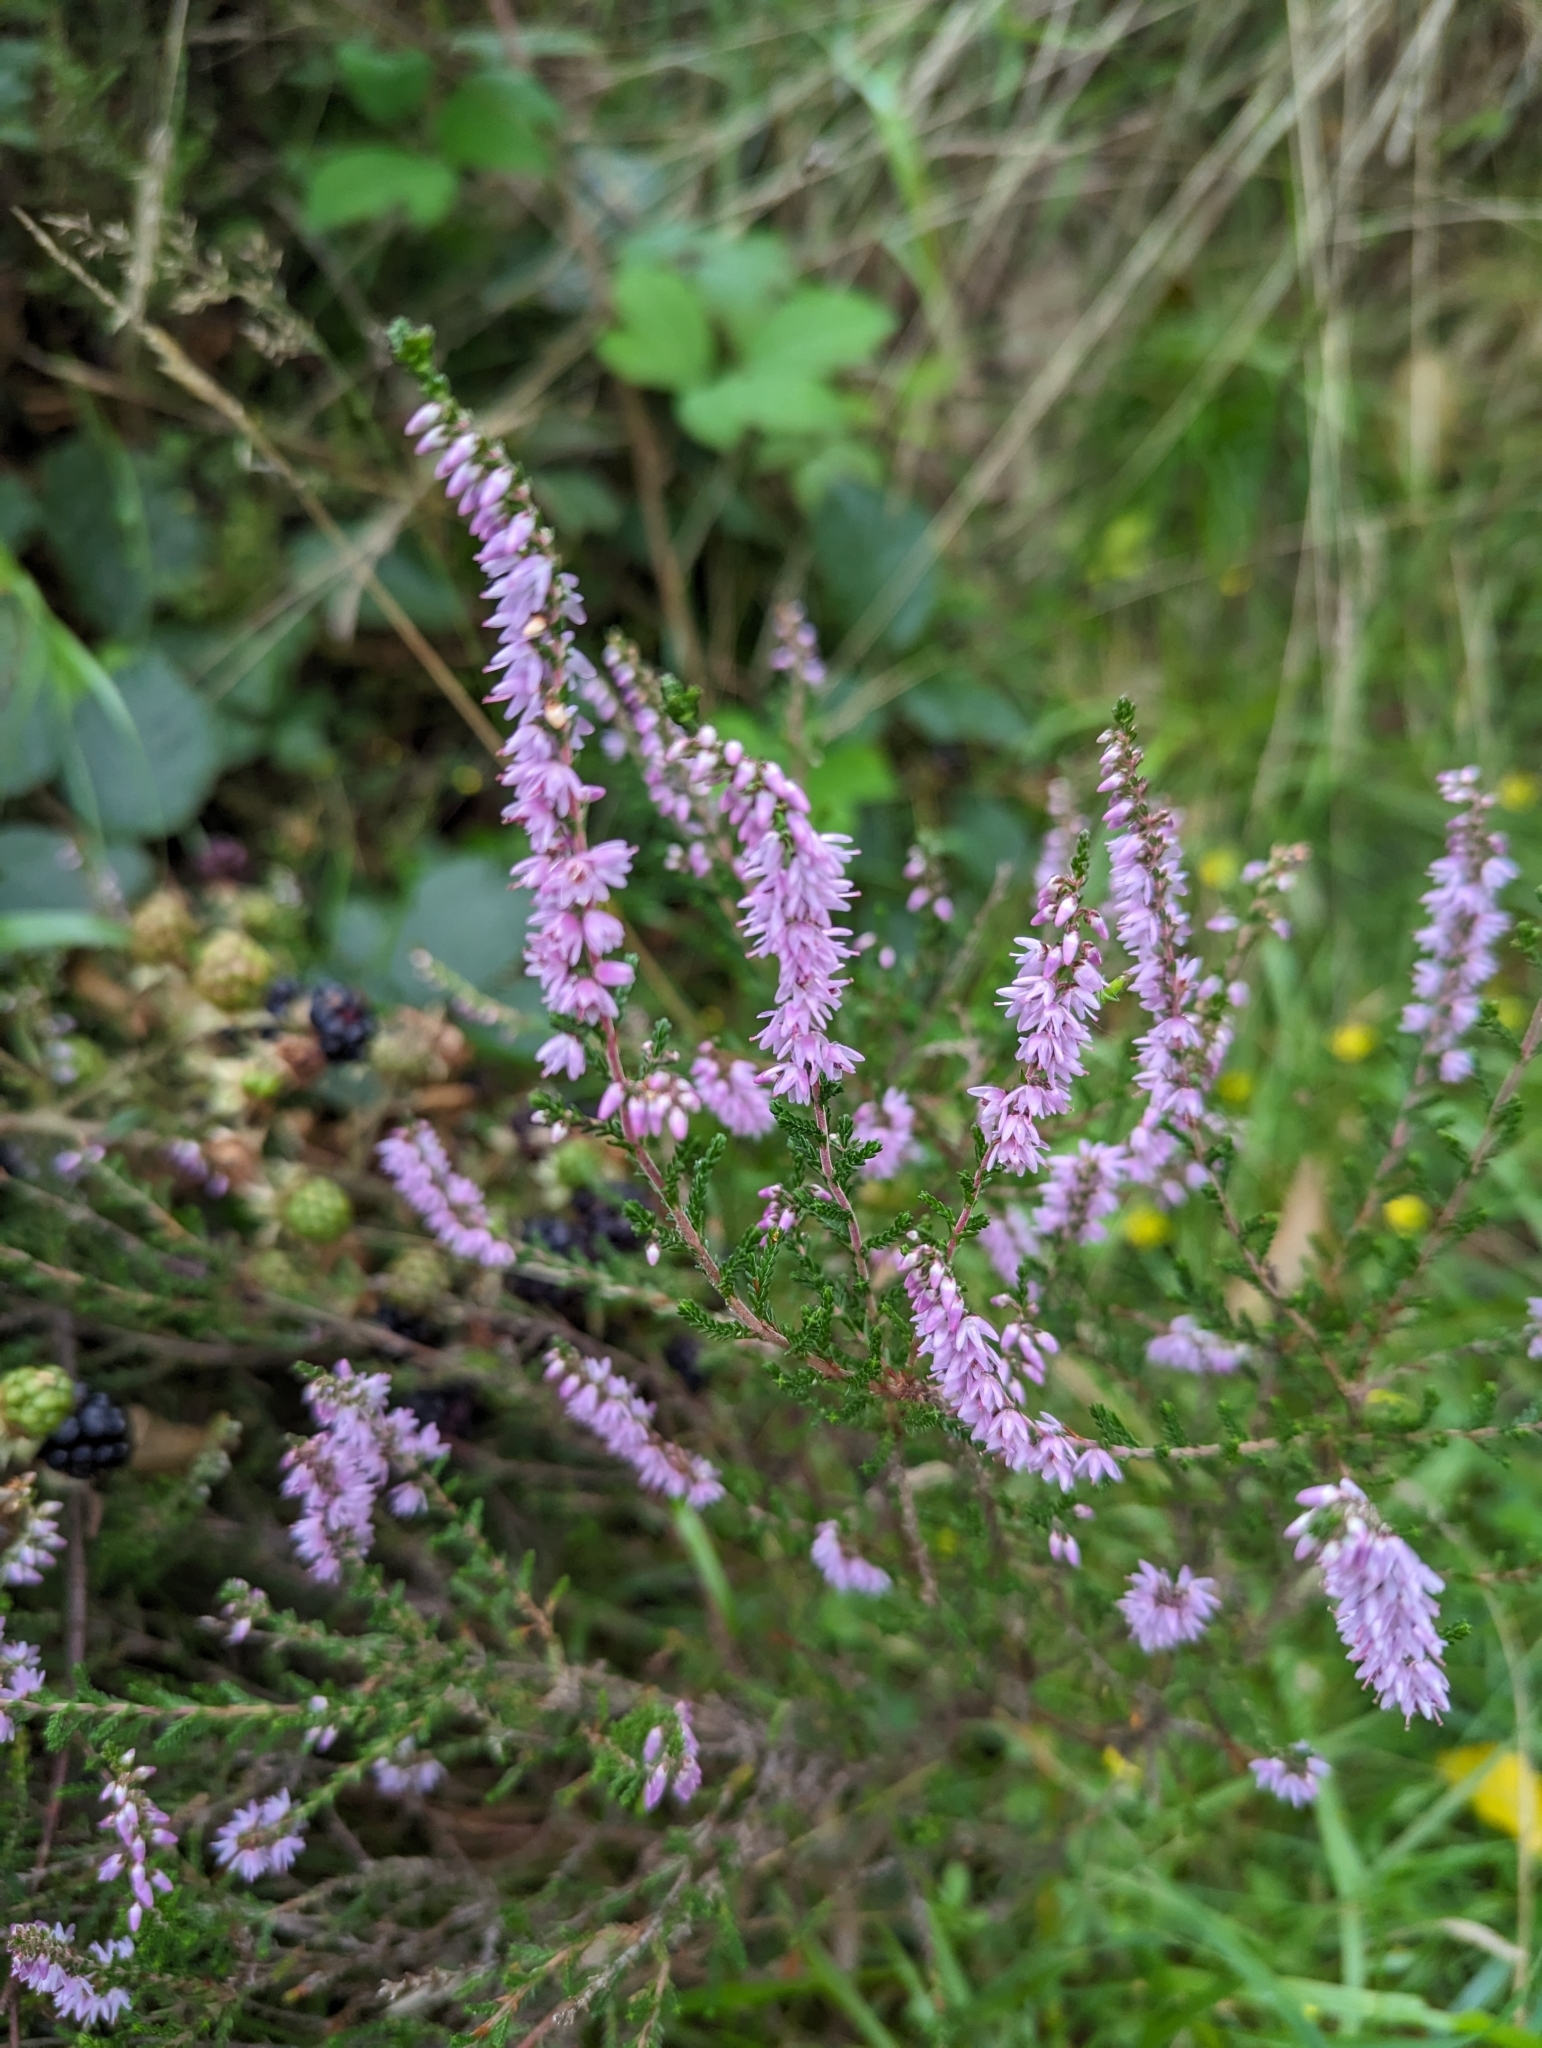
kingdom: Plantae
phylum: Tracheophyta
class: Magnoliopsida
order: Ericales
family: Ericaceae
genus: Calluna
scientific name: Calluna vulgaris
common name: Heather
